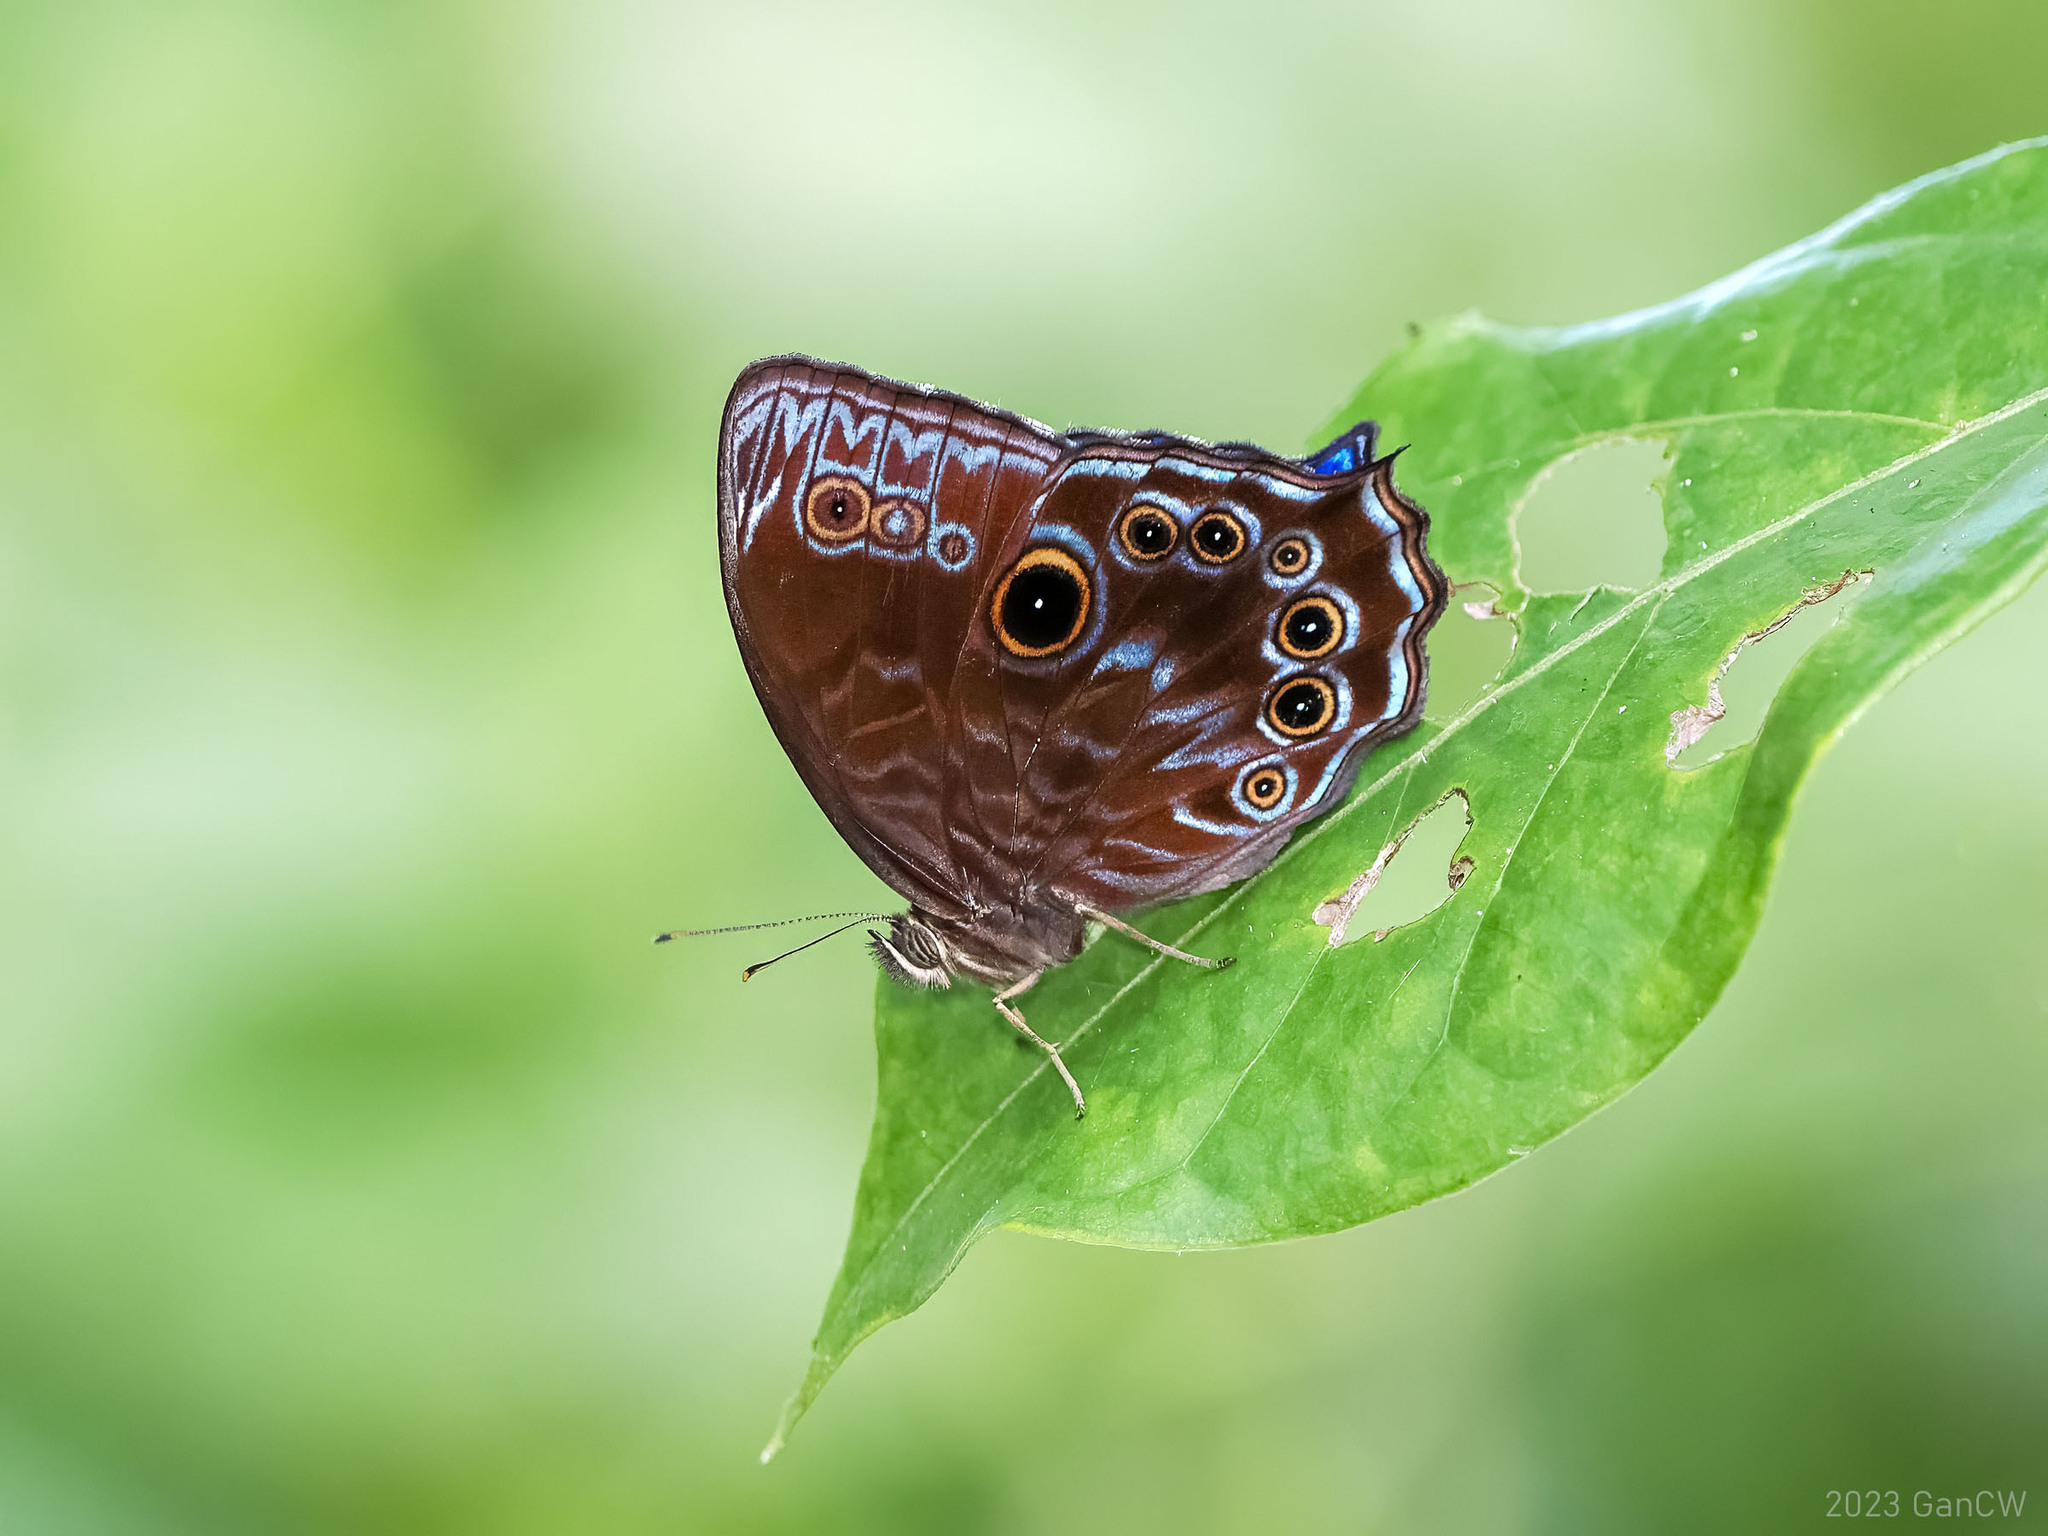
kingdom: Animalia
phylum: Arthropoda
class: Insecta
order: Lepidoptera
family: Nymphalidae
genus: Ptychandra
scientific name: Ptychandra lorquinii
